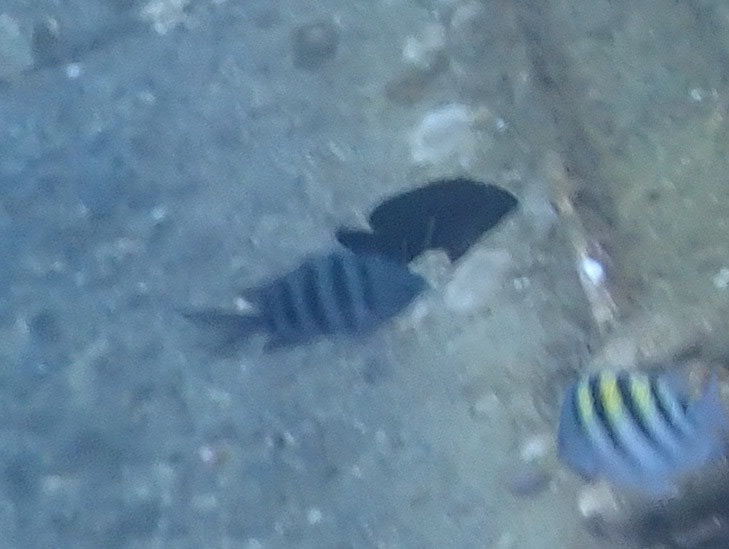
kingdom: Animalia
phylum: Chordata
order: Perciformes
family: Pomacentridae
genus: Abudefduf
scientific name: Abudefduf saxatilis
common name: Sergeant major
